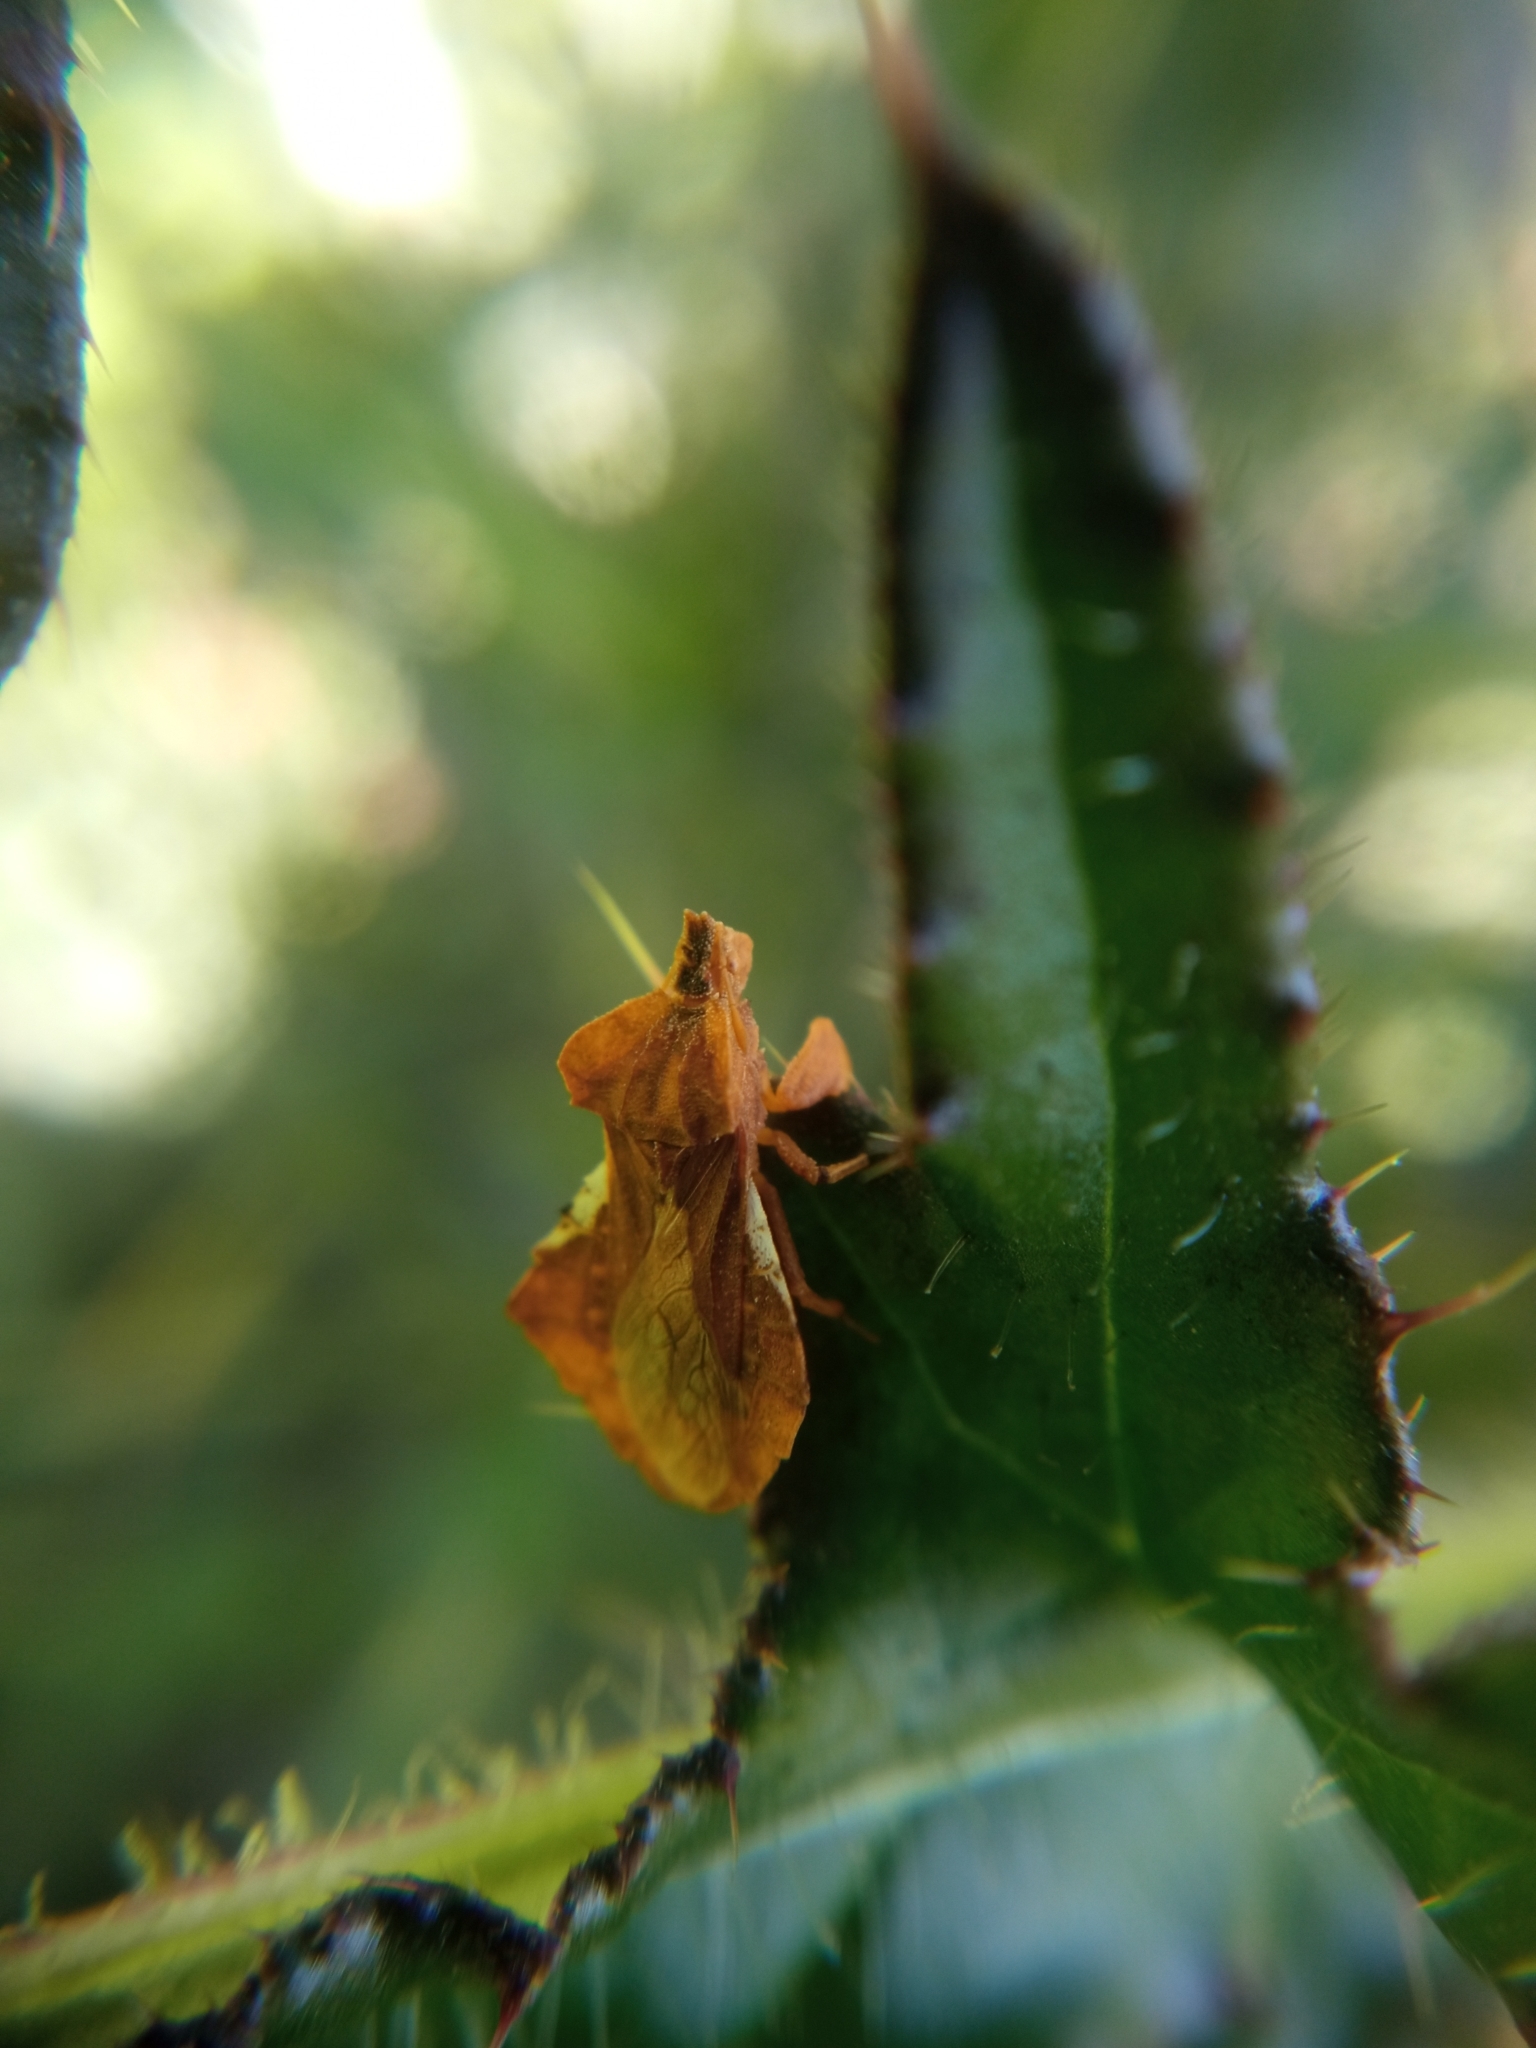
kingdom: Animalia
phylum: Arthropoda
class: Insecta
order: Hemiptera
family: Reduviidae
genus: Phymata
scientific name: Phymata crassipes
